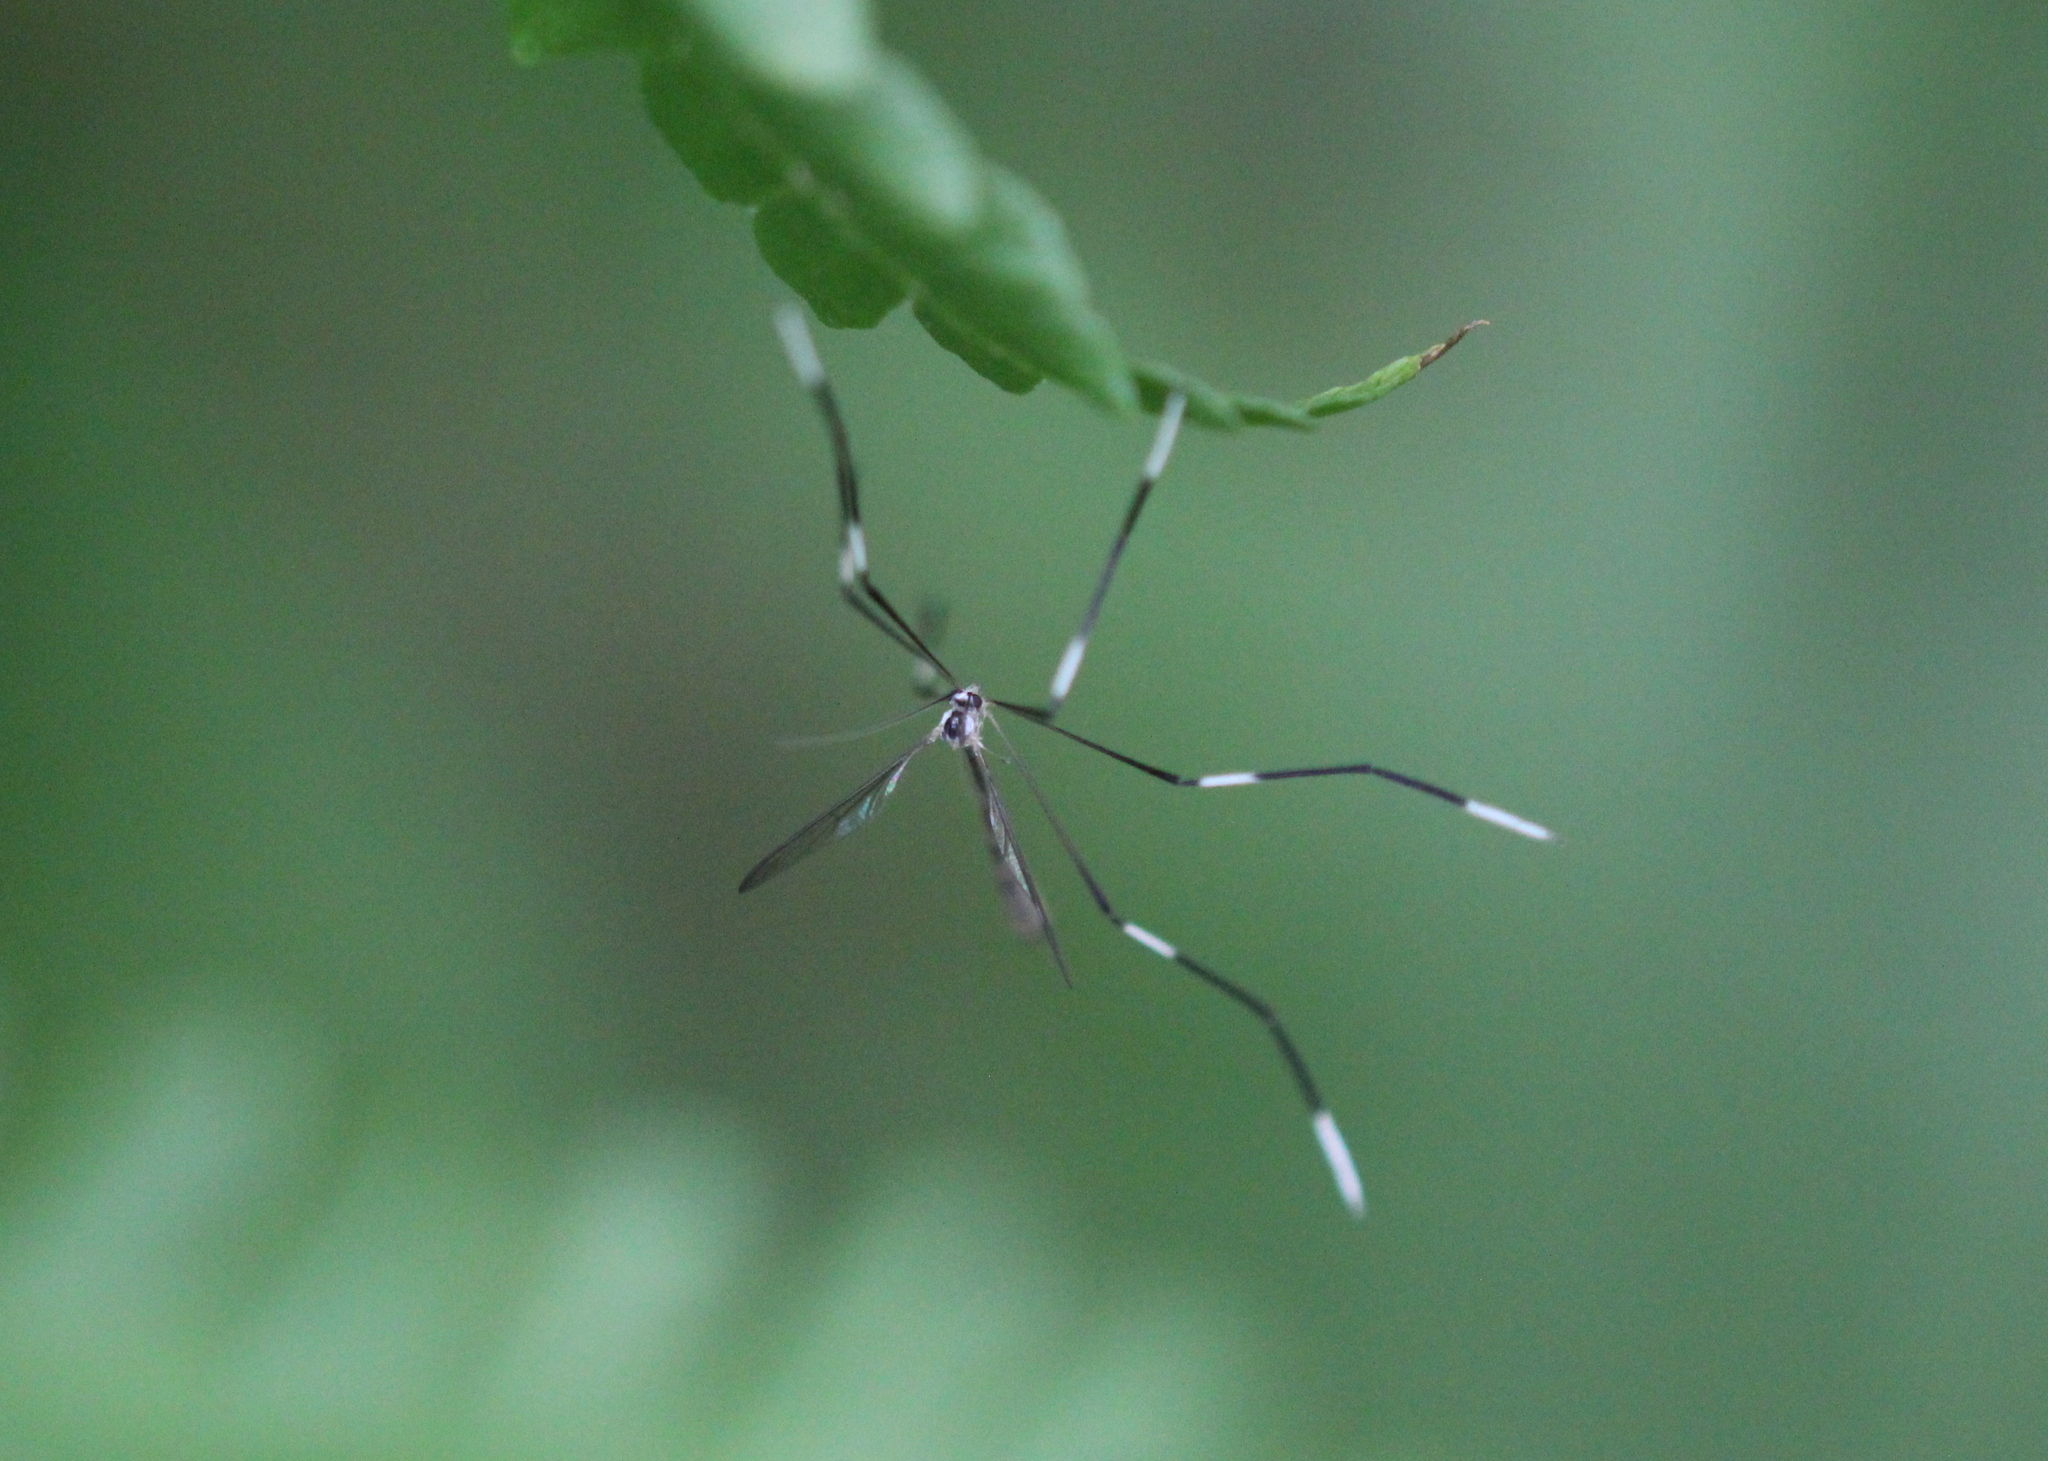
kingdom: Animalia
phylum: Arthropoda
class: Insecta
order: Diptera
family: Ptychopteridae
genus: Bittacomorpha
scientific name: Bittacomorpha clavipes
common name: Eastern phantom crane fly
